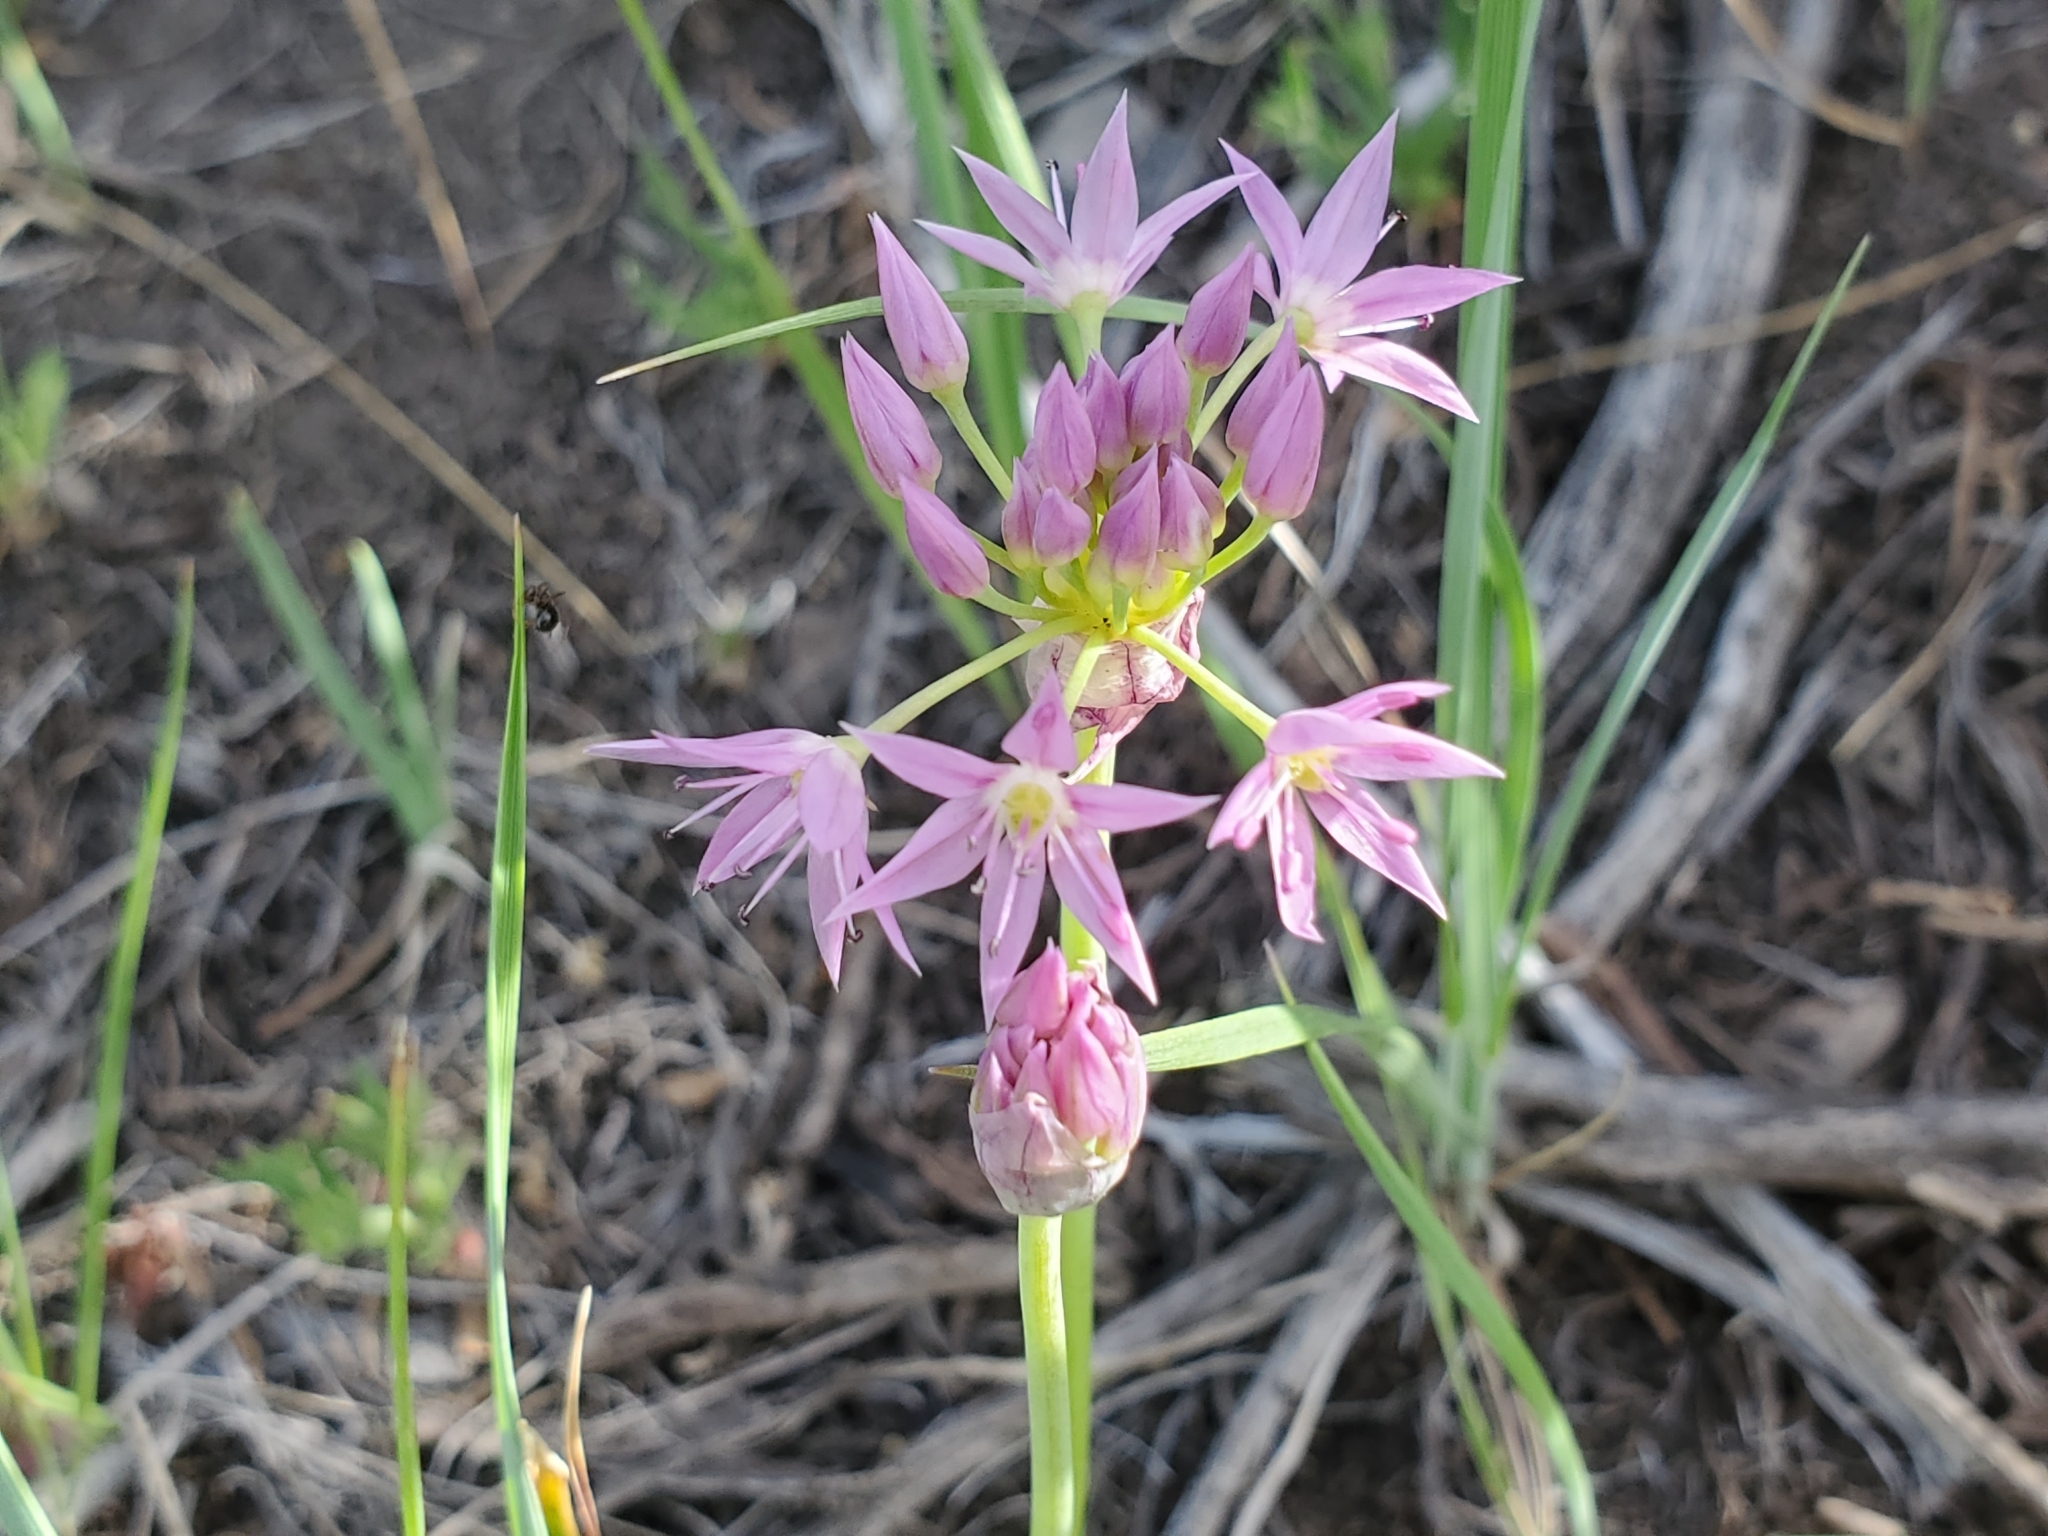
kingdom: Plantae
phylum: Tracheophyta
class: Liliopsida
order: Asparagales
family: Amaryllidaceae
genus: Allium
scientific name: Allium bisceptrum
